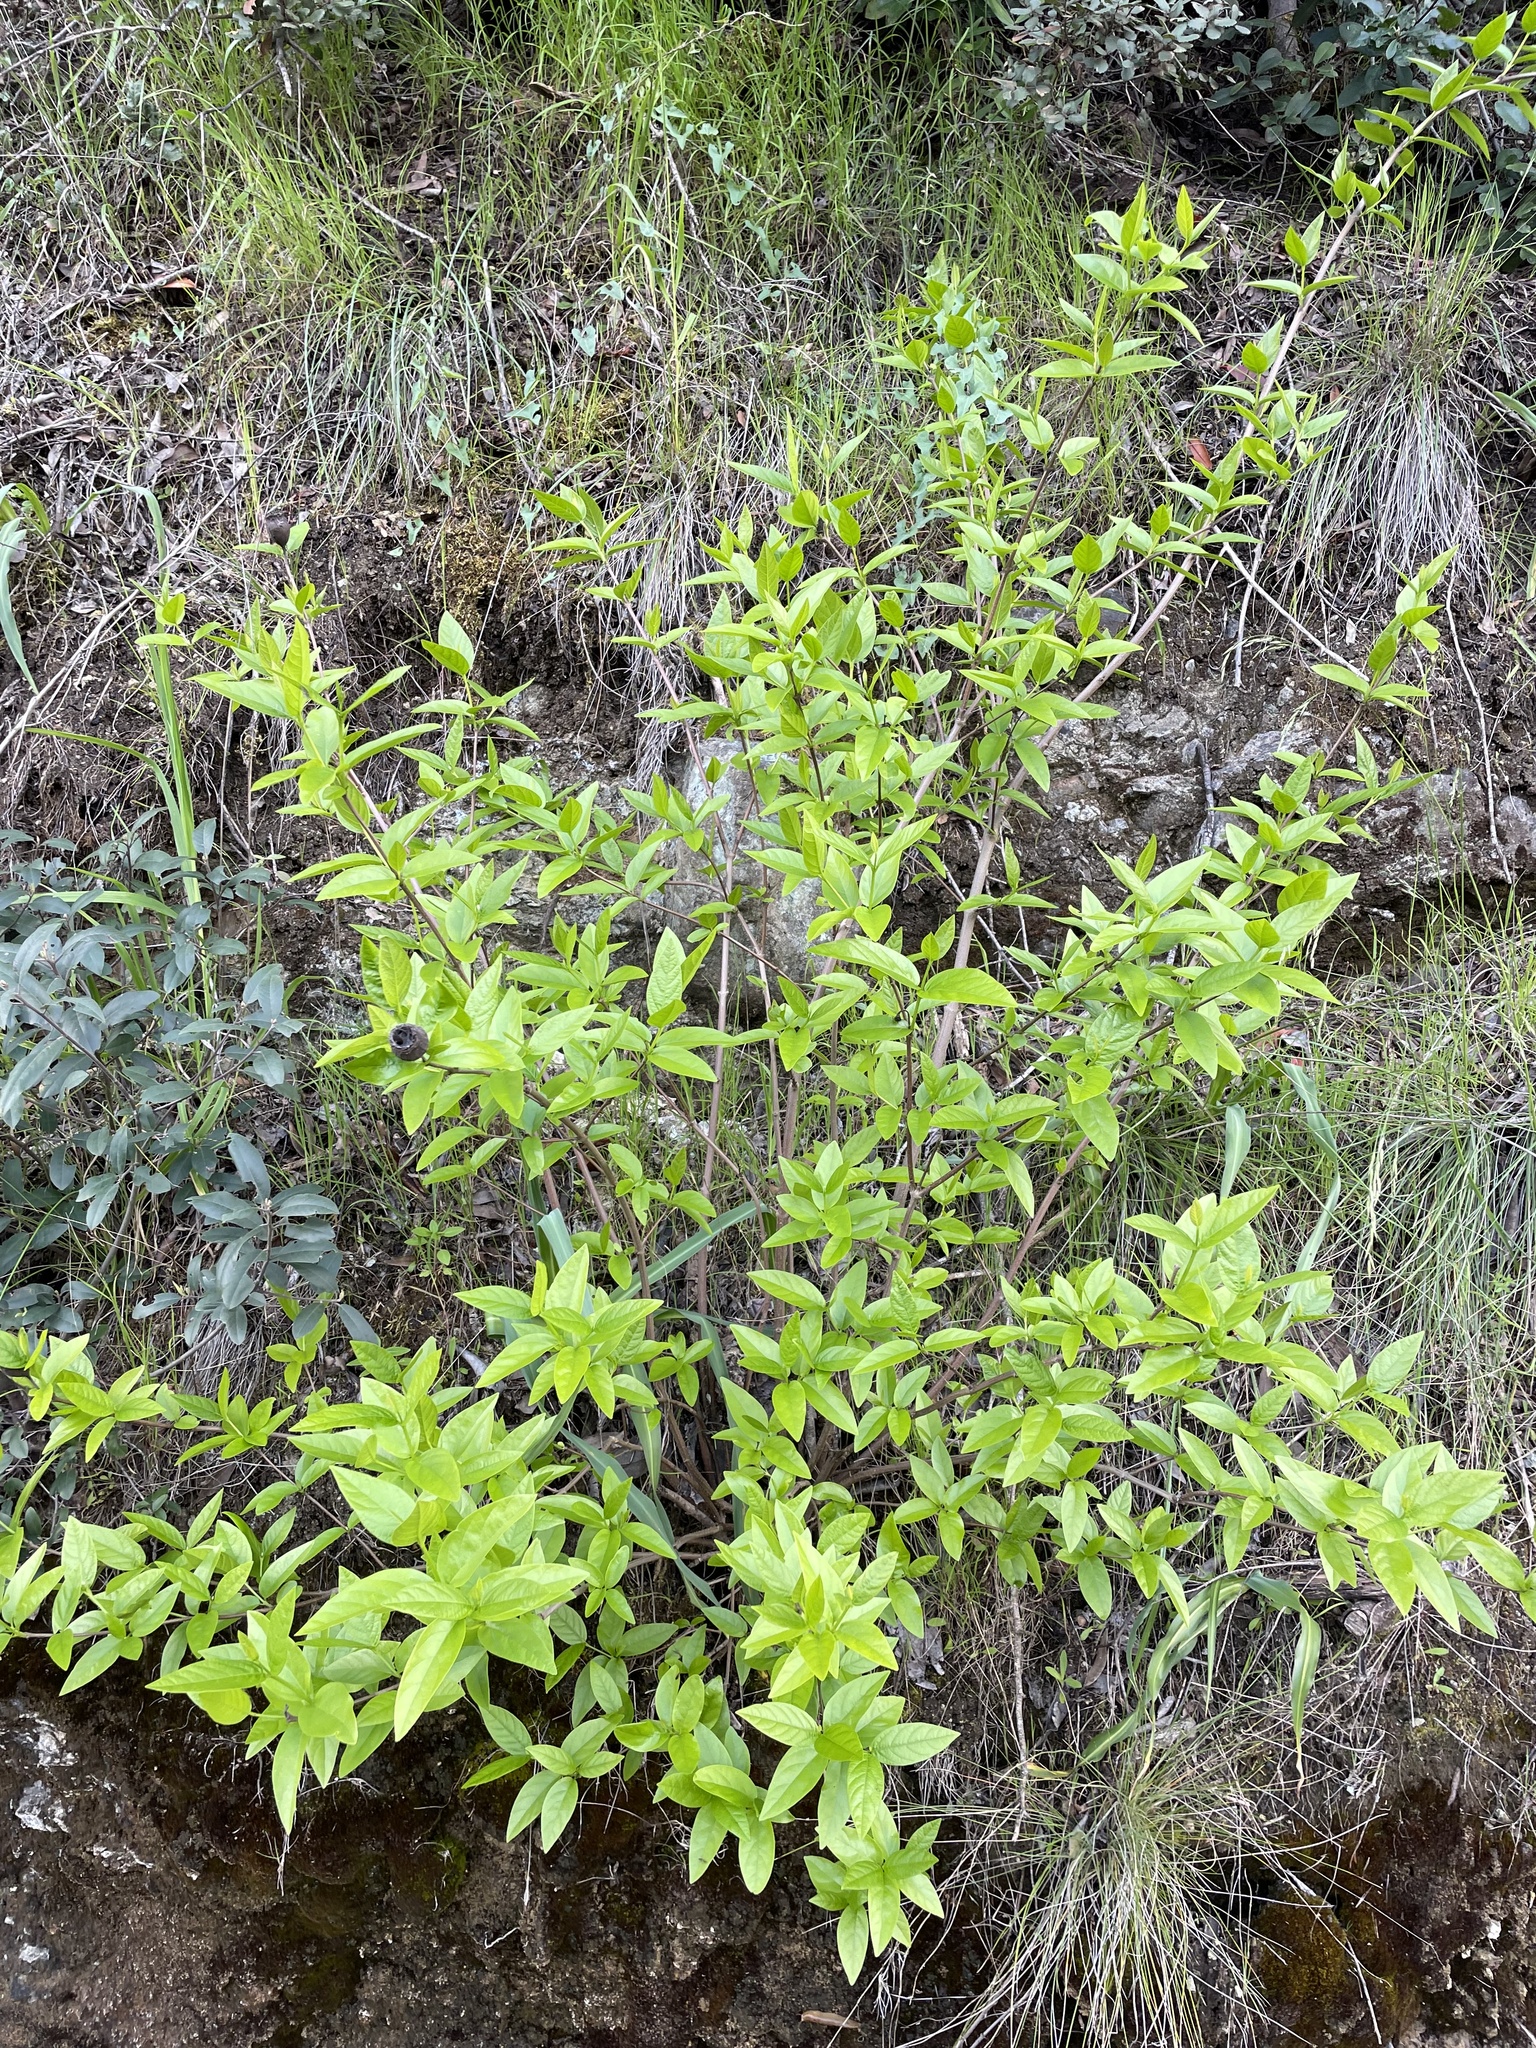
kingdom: Plantae
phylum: Tracheophyta
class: Magnoliopsida
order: Laurales
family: Calycanthaceae
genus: Calycanthus
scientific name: Calycanthus occidentalis
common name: California spicebush
